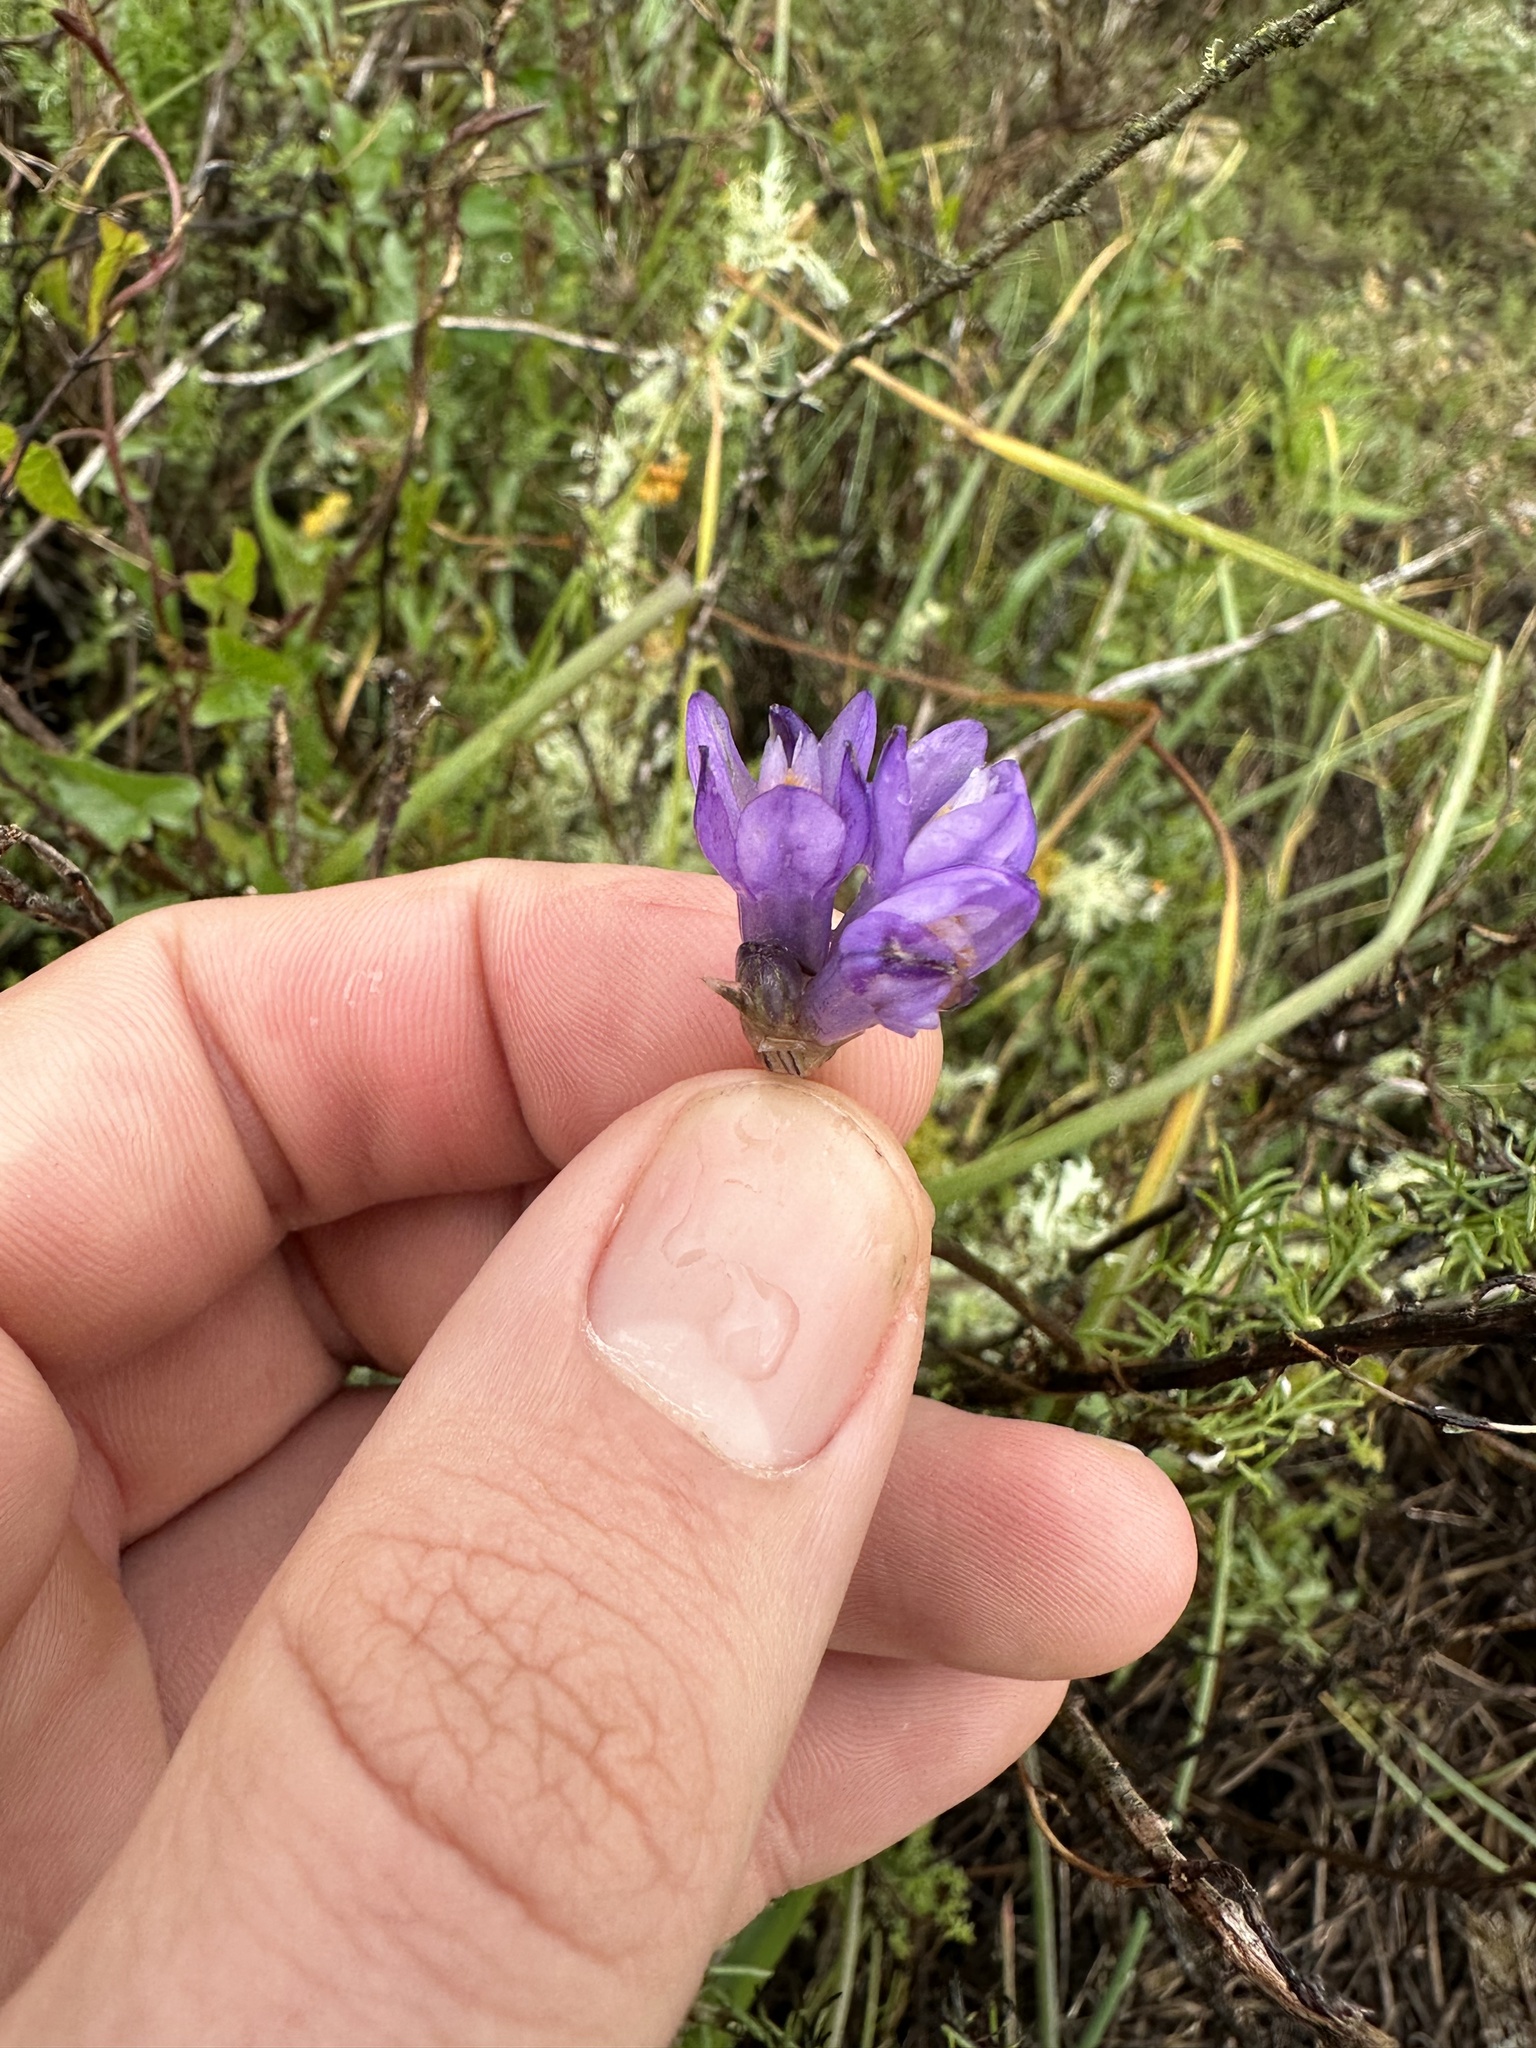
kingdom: Plantae
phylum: Tracheophyta
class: Liliopsida
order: Asparagales
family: Asparagaceae
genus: Dipterostemon
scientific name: Dipterostemon capitatus
